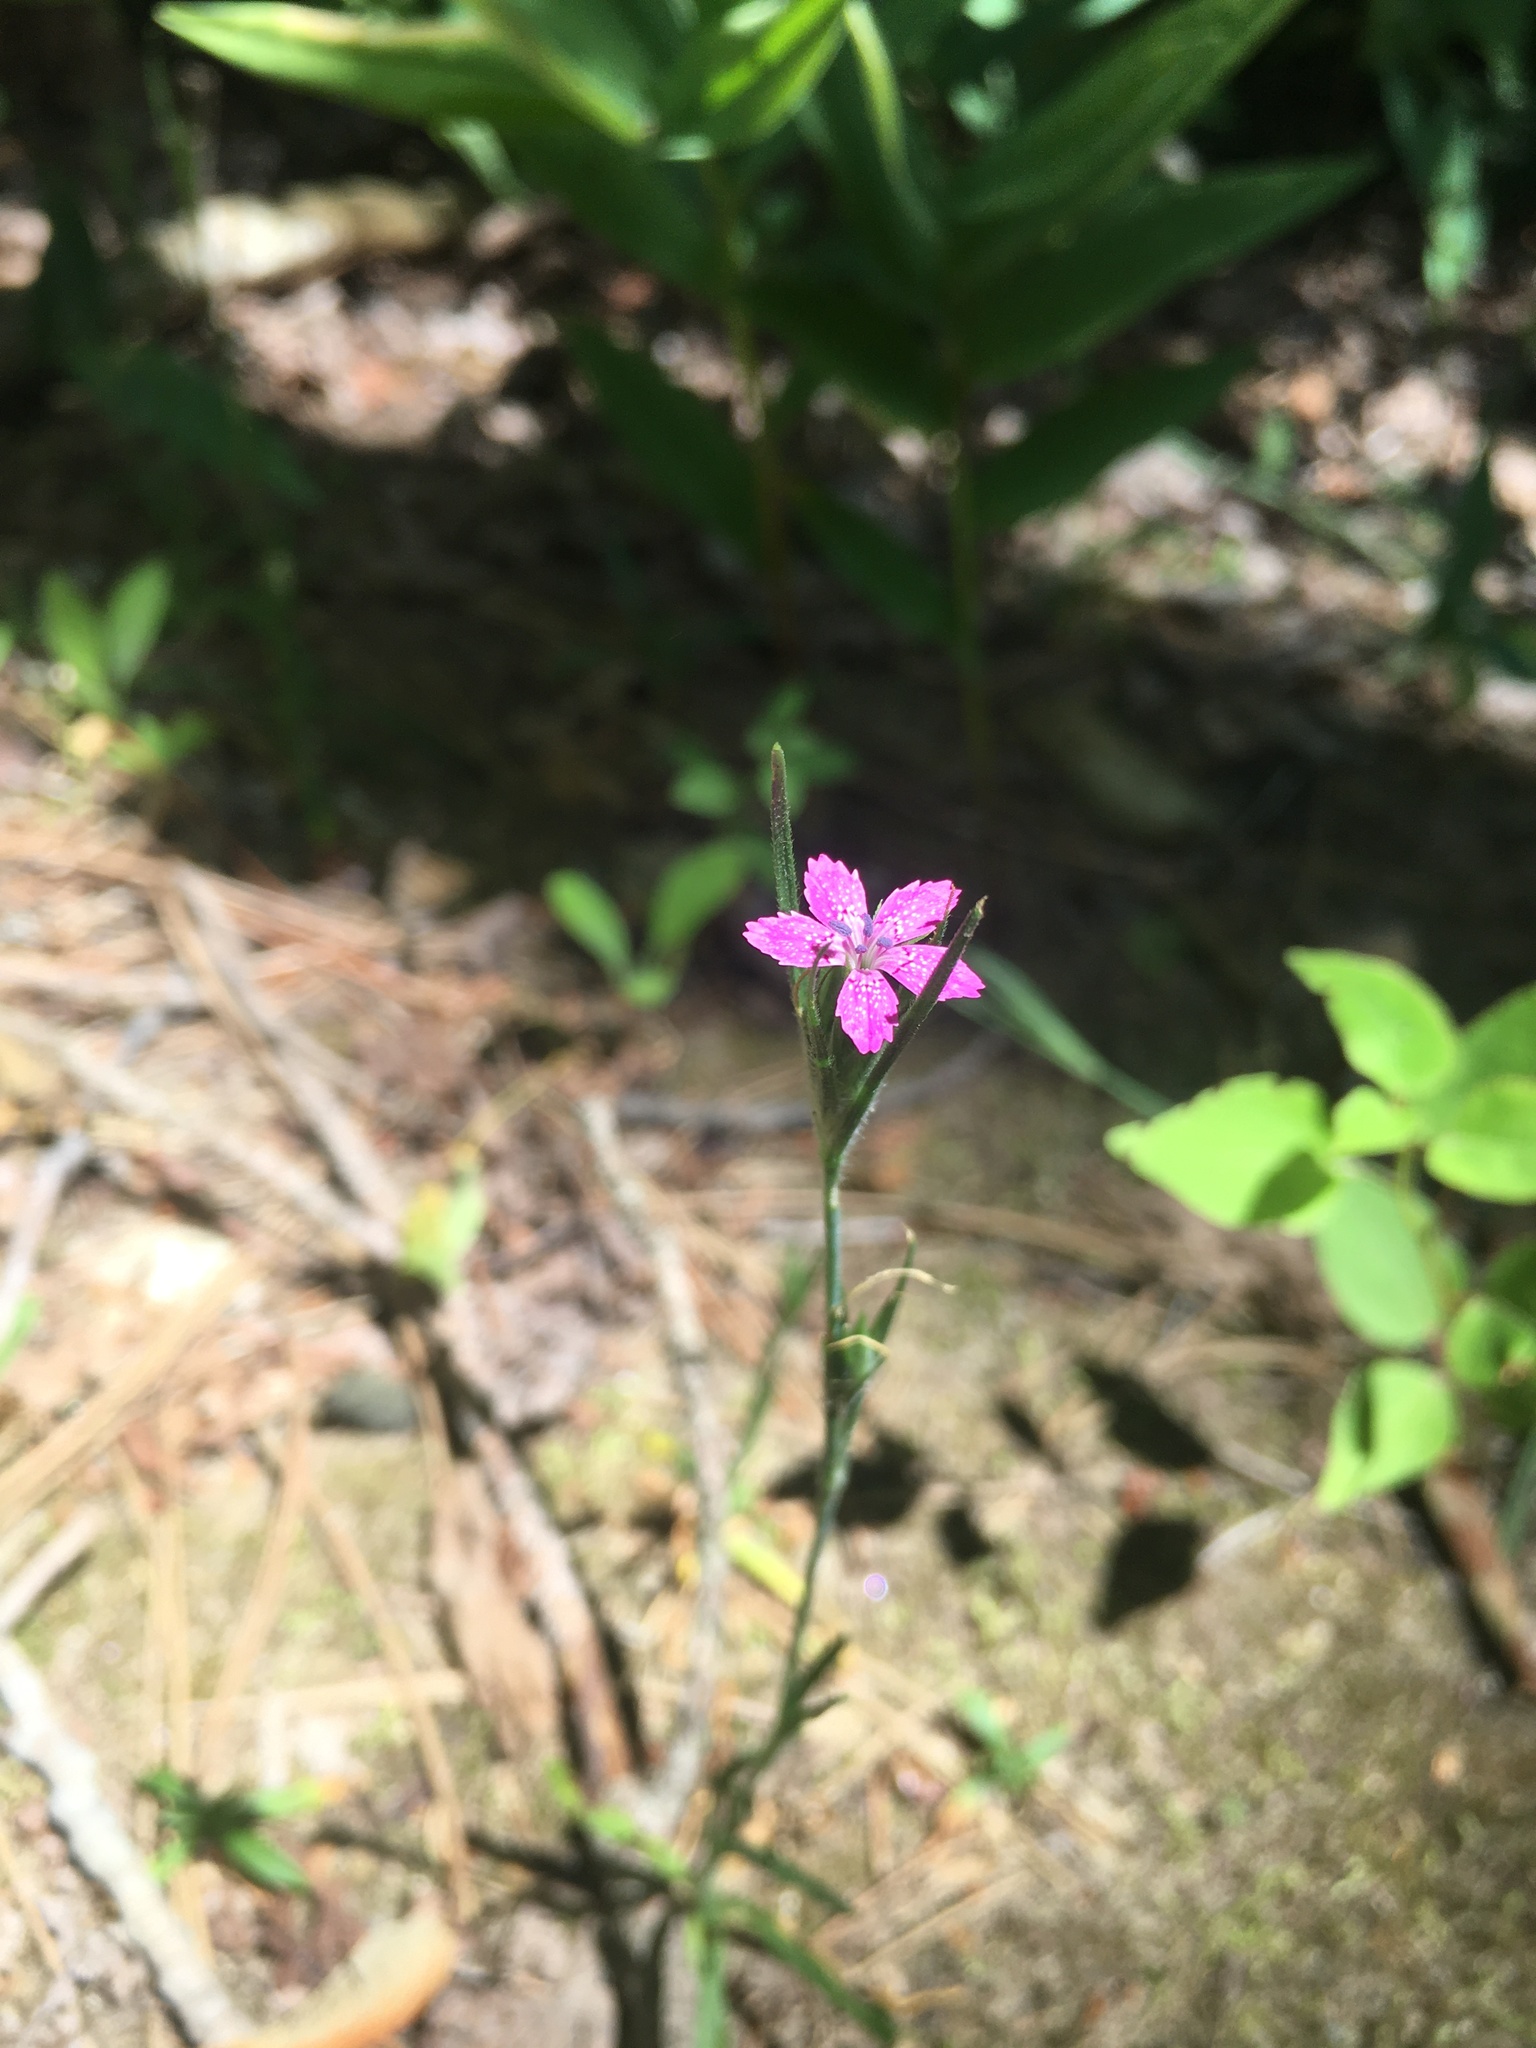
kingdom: Plantae
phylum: Tracheophyta
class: Magnoliopsida
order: Caryophyllales
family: Caryophyllaceae
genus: Dianthus
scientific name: Dianthus armeria
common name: Deptford pink
